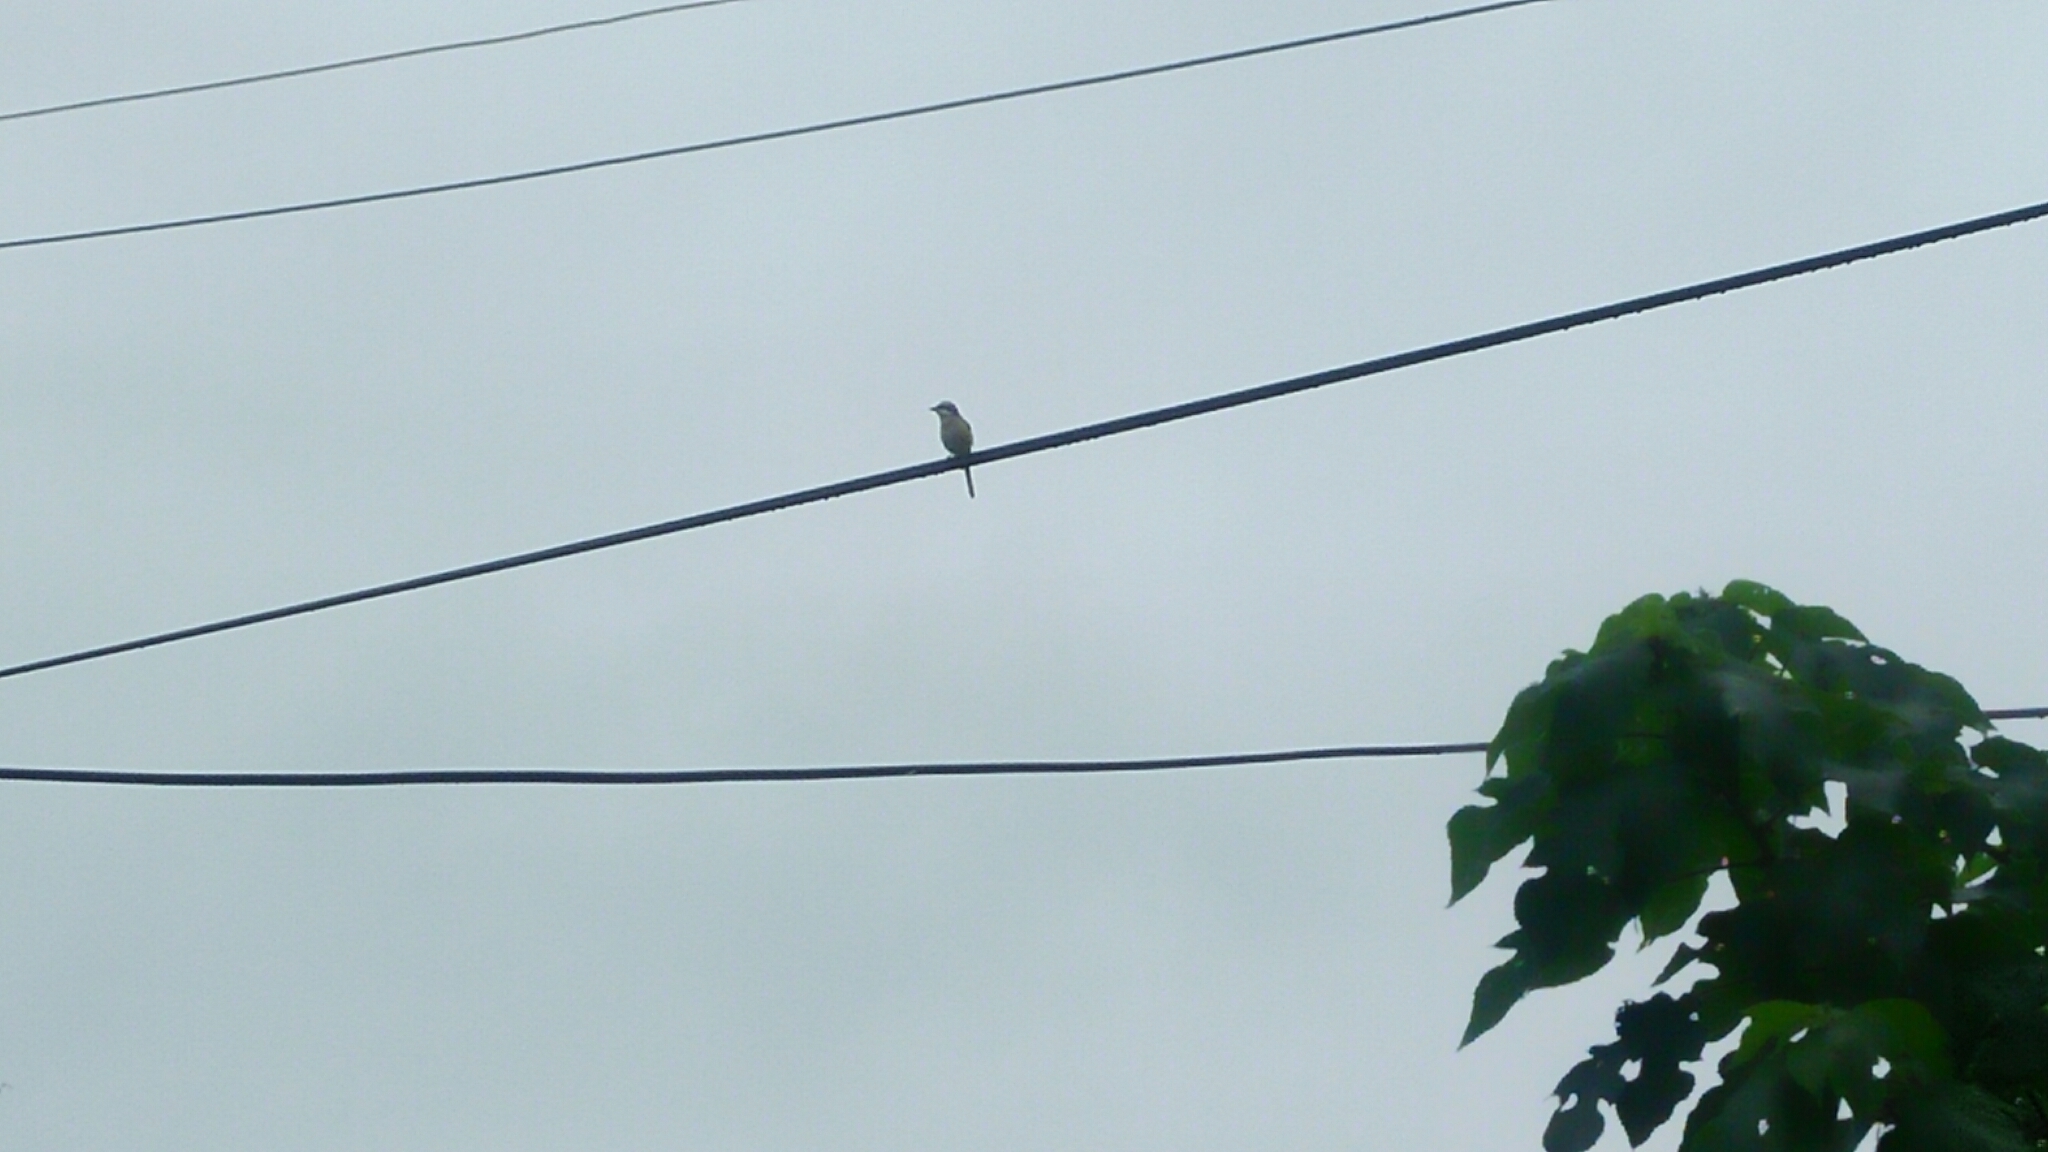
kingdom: Animalia
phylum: Chordata
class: Aves
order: Passeriformes
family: Laniidae
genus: Lanius
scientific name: Lanius cristatus
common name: Brown shrike
